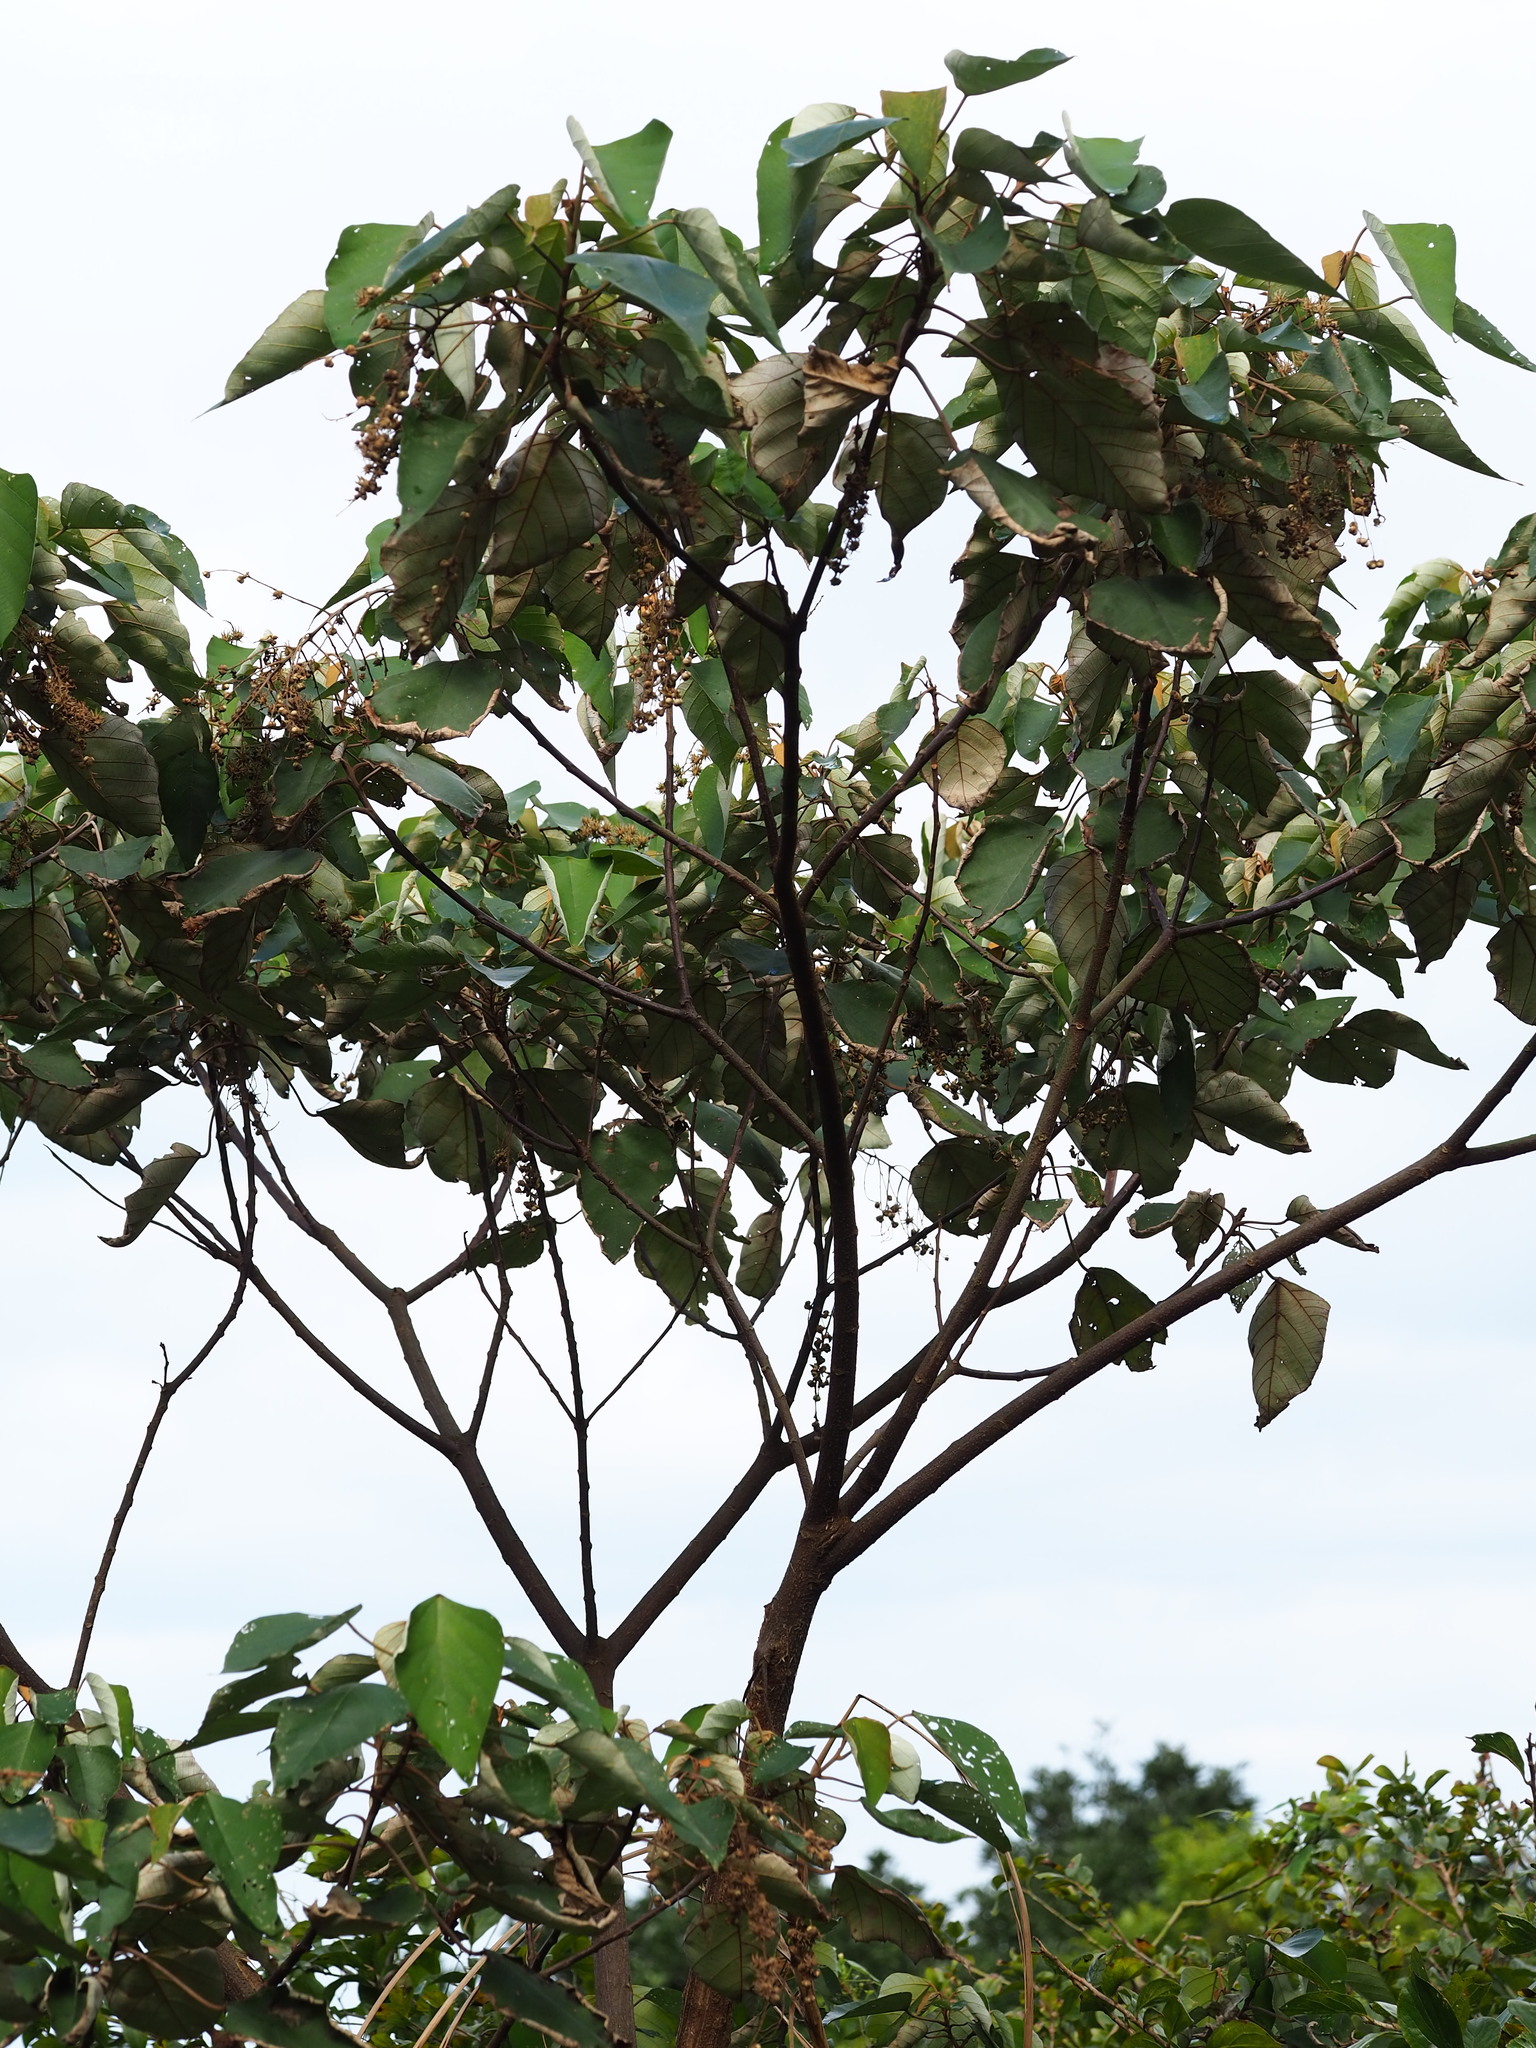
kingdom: Plantae
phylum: Tracheophyta
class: Magnoliopsida
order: Malpighiales
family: Euphorbiaceae
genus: Mallotus
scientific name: Mallotus paniculatus
